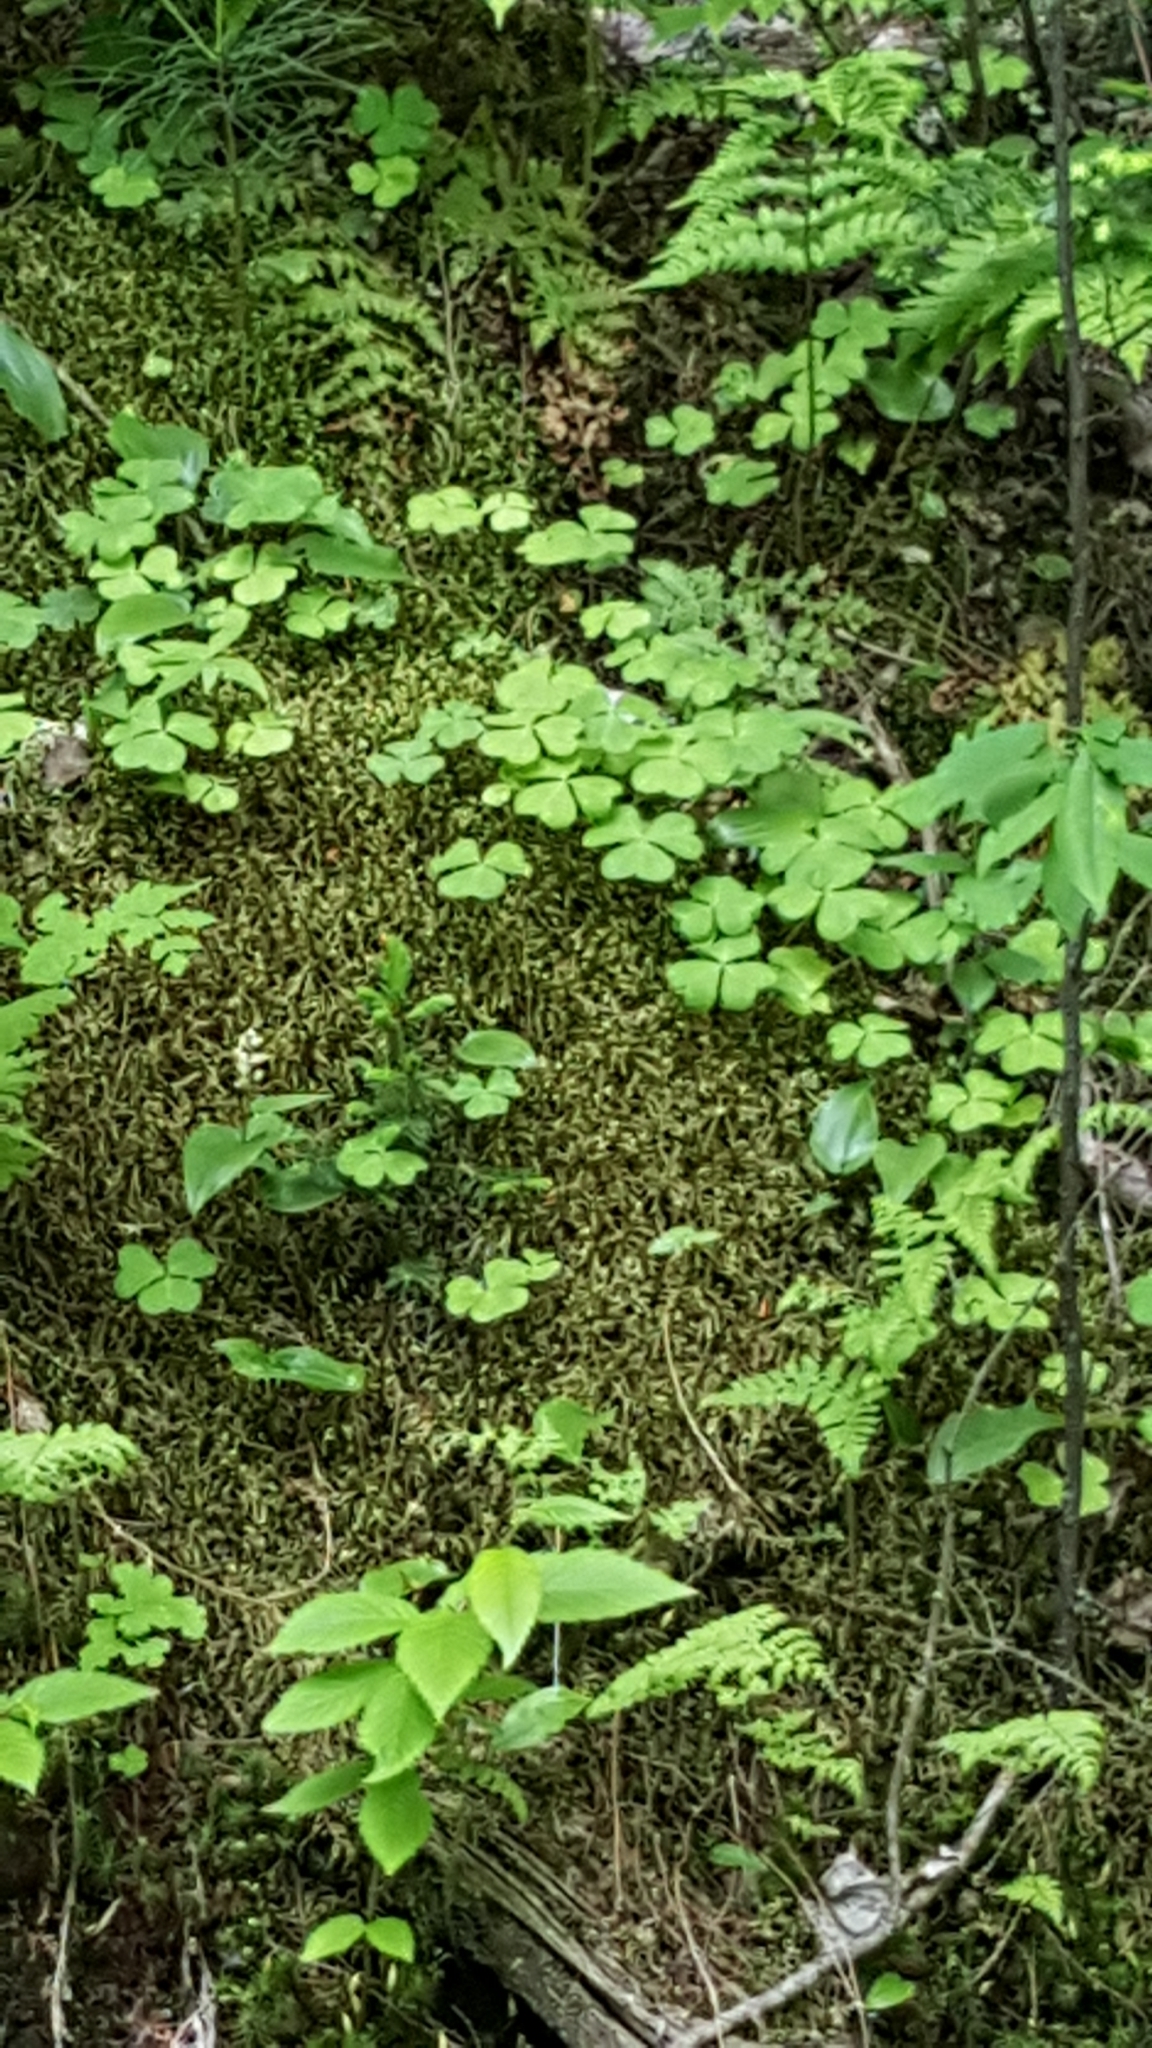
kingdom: Plantae
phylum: Tracheophyta
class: Magnoliopsida
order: Oxalidales
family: Oxalidaceae
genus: Oxalis
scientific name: Oxalis montana
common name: American wood-sorrel
